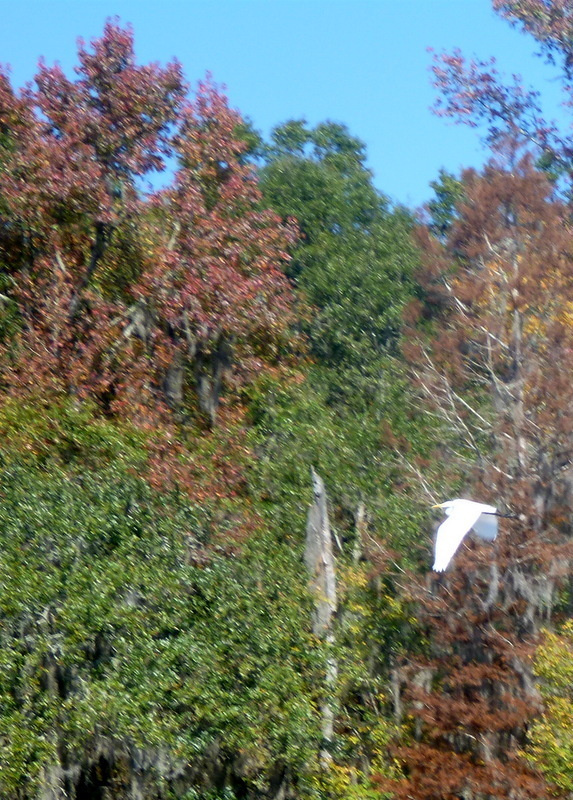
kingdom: Animalia
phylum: Chordata
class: Aves
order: Pelecaniformes
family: Ardeidae
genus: Ardea
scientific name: Ardea alba
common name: Great egret
